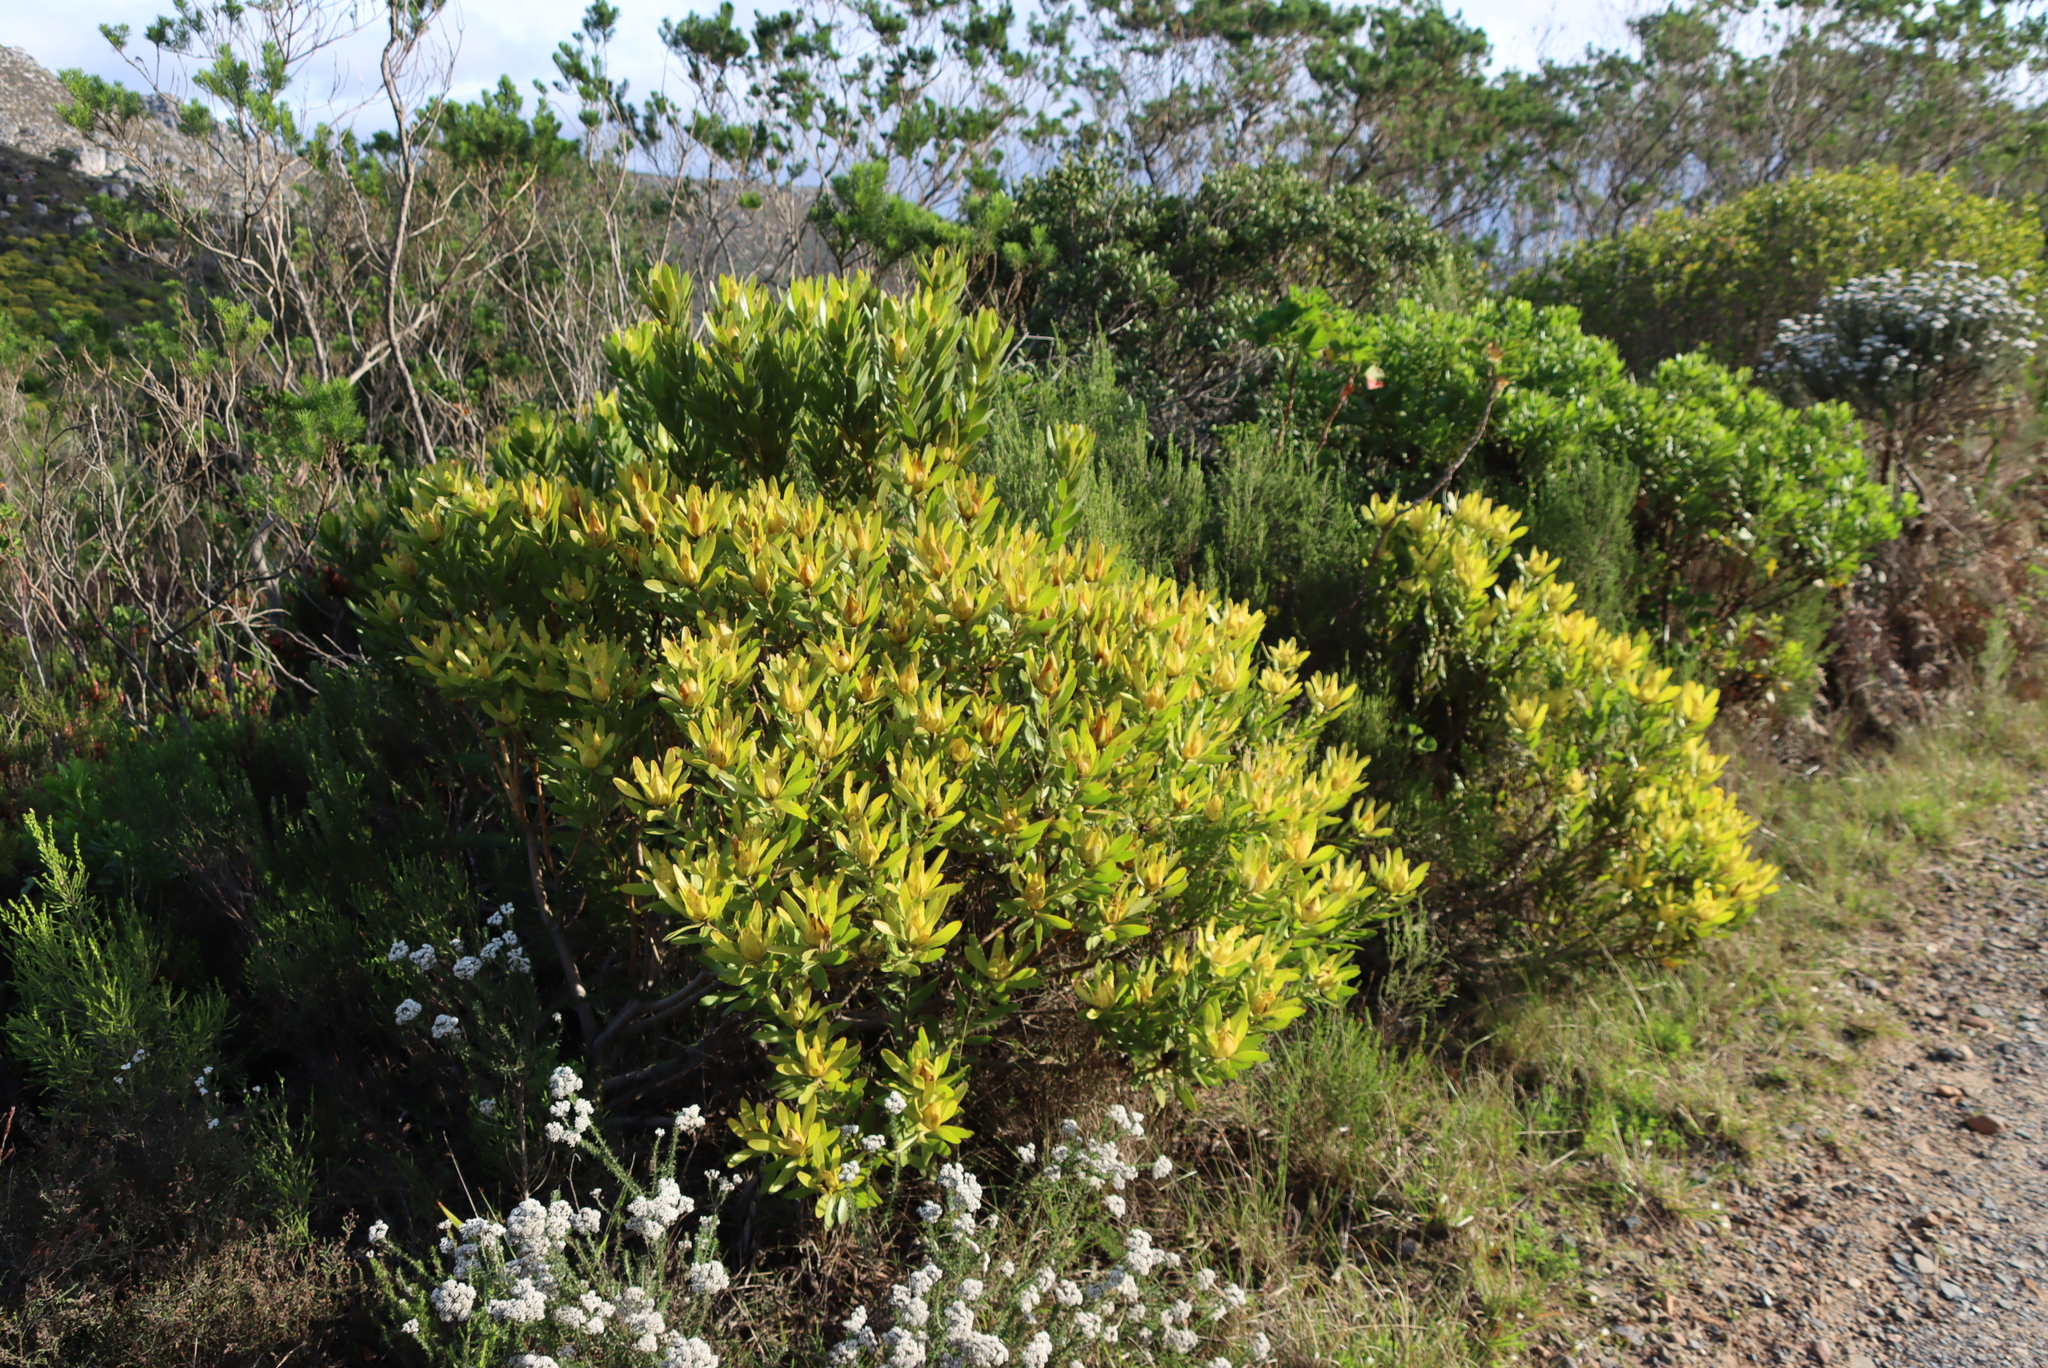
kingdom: Plantae
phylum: Tracheophyta
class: Magnoliopsida
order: Proteales
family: Proteaceae
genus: Leucadendron
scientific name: Leucadendron laureolum
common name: Golden sunshinebush
